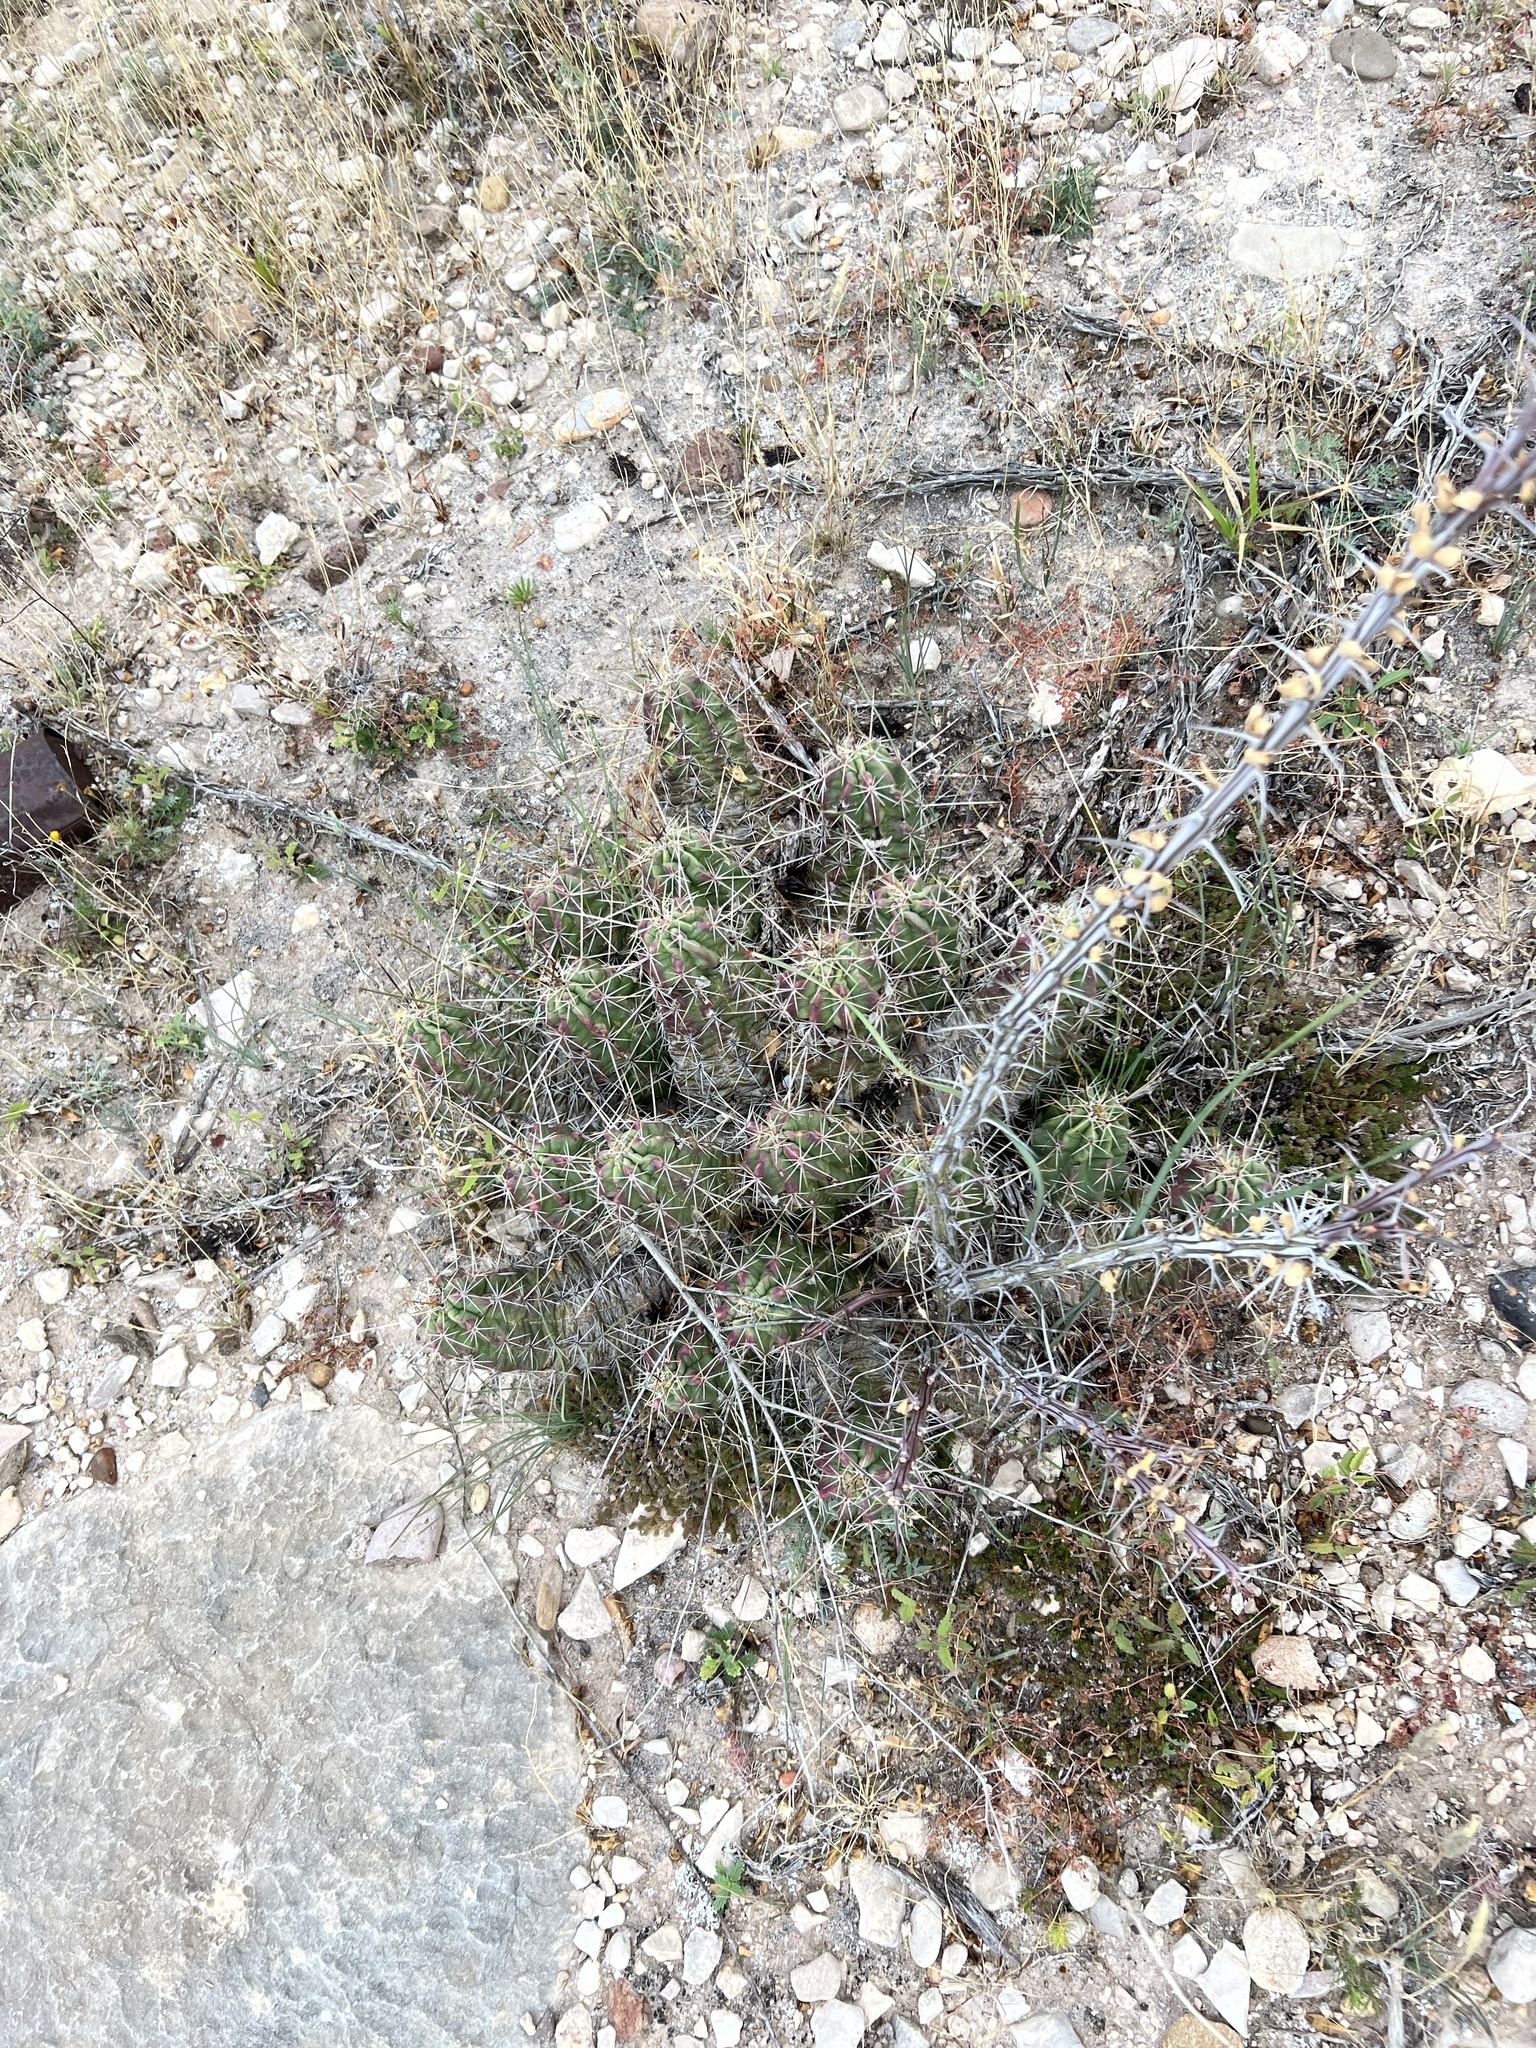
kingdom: Plantae
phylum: Tracheophyta
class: Magnoliopsida
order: Caryophyllales
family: Cactaceae
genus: Echinocereus
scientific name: Echinocereus enneacanthus
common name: Pitaya
